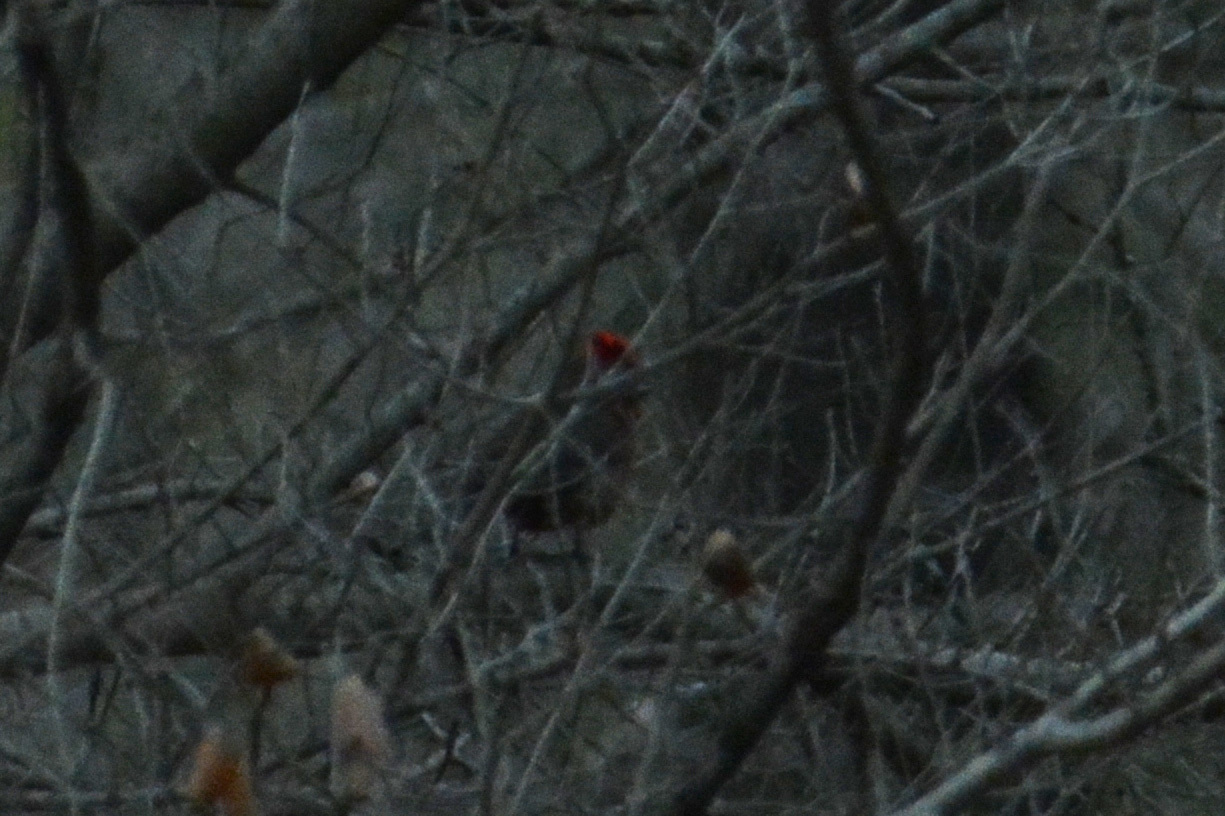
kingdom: Animalia
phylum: Chordata
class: Aves
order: Passeriformes
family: Thraupidae
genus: Coryphospingus
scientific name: Coryphospingus cucullatus
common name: Red pileated finch
